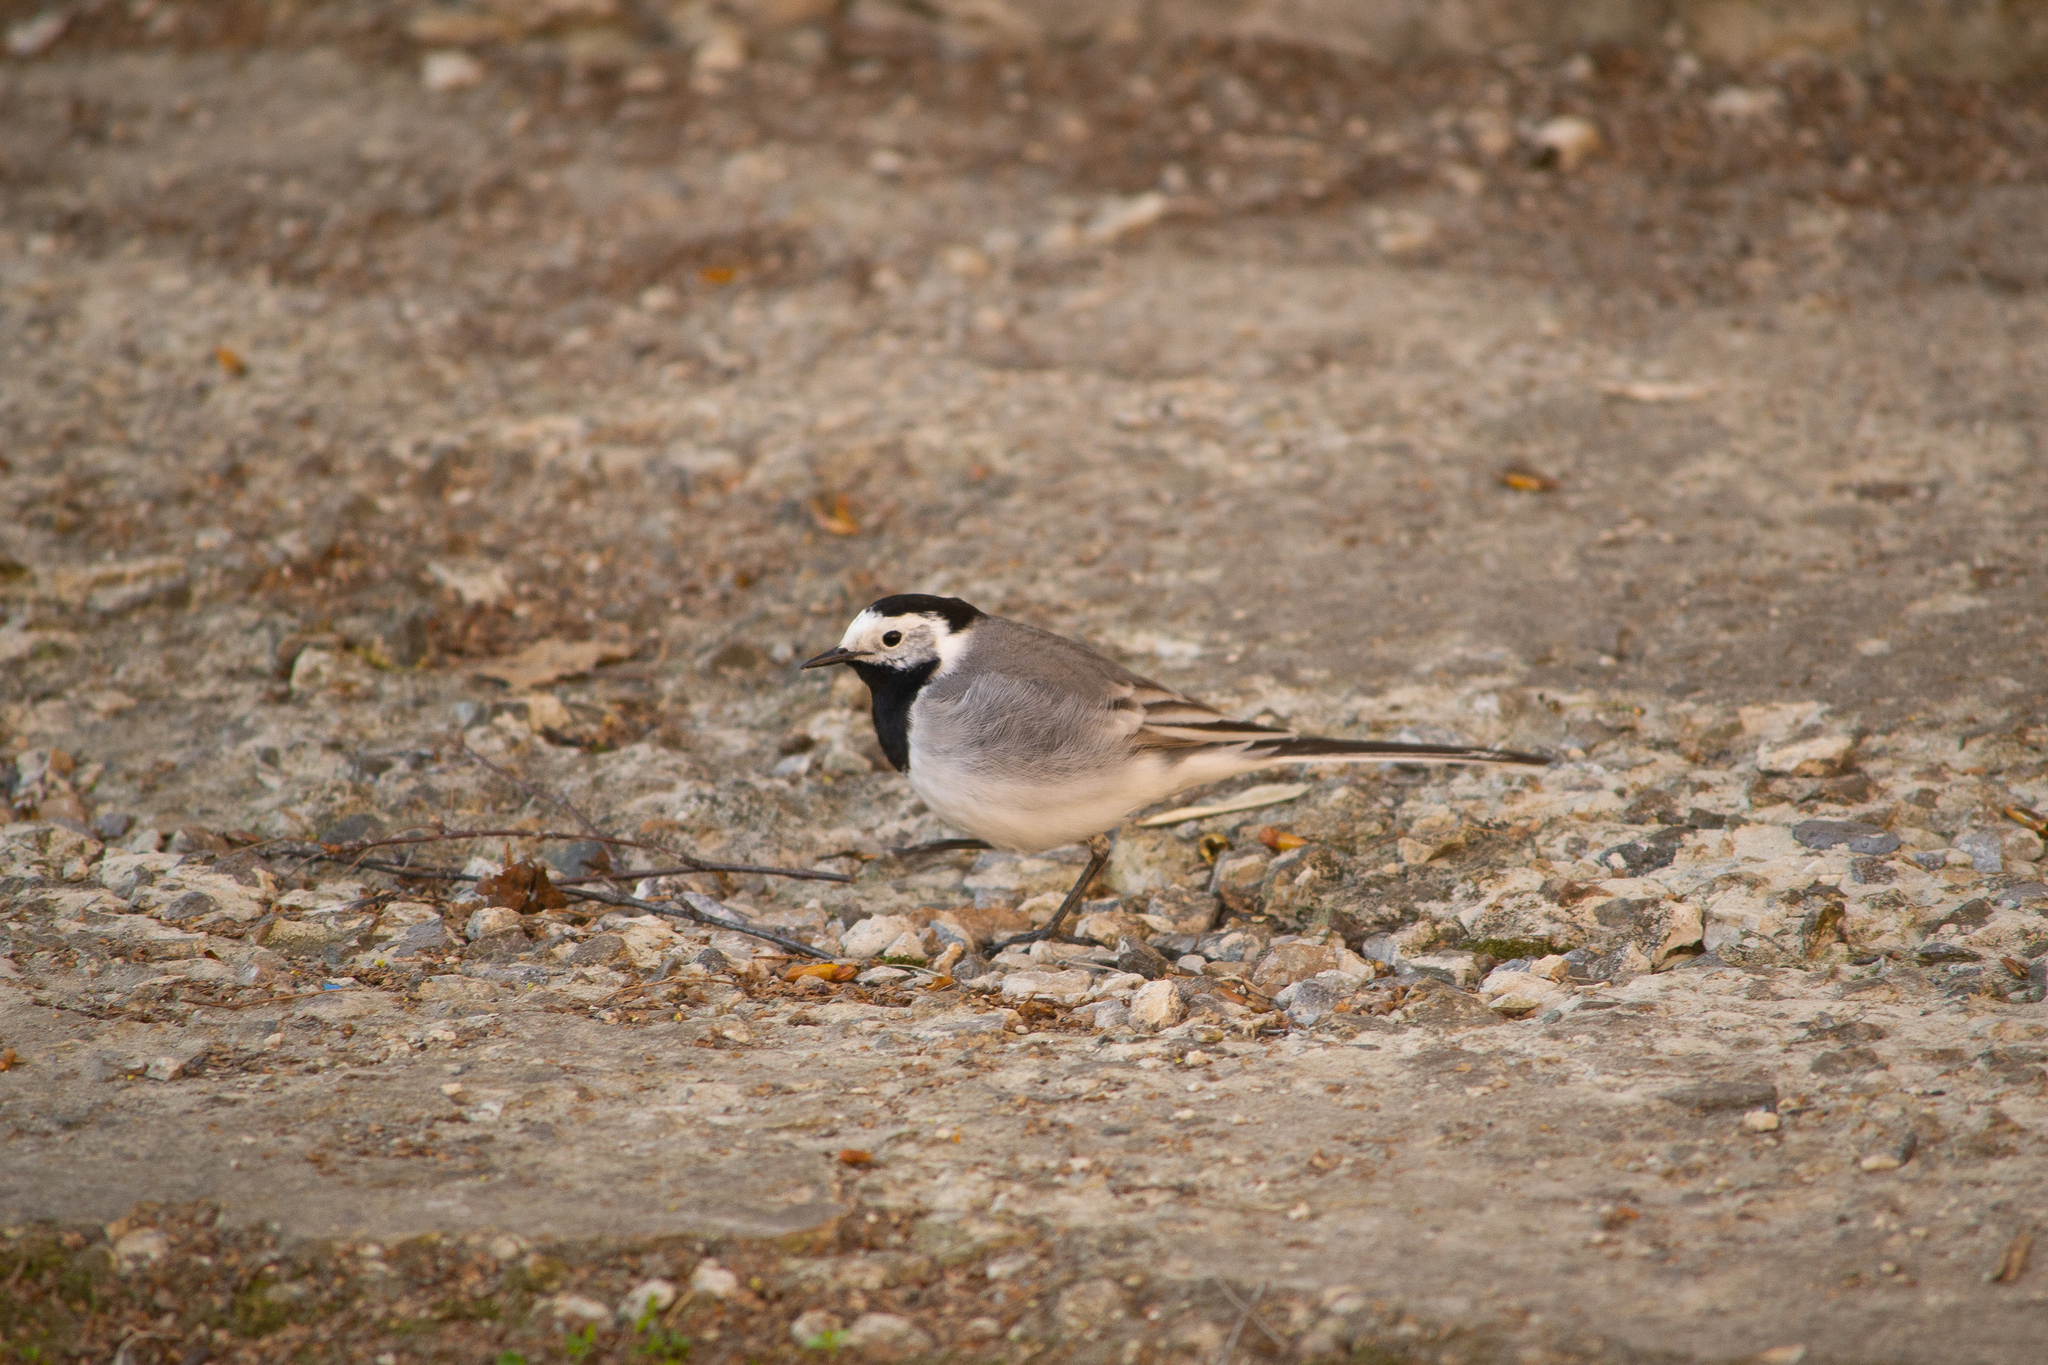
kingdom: Animalia
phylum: Chordata
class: Aves
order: Passeriformes
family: Motacillidae
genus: Motacilla
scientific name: Motacilla alba
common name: White wagtail
